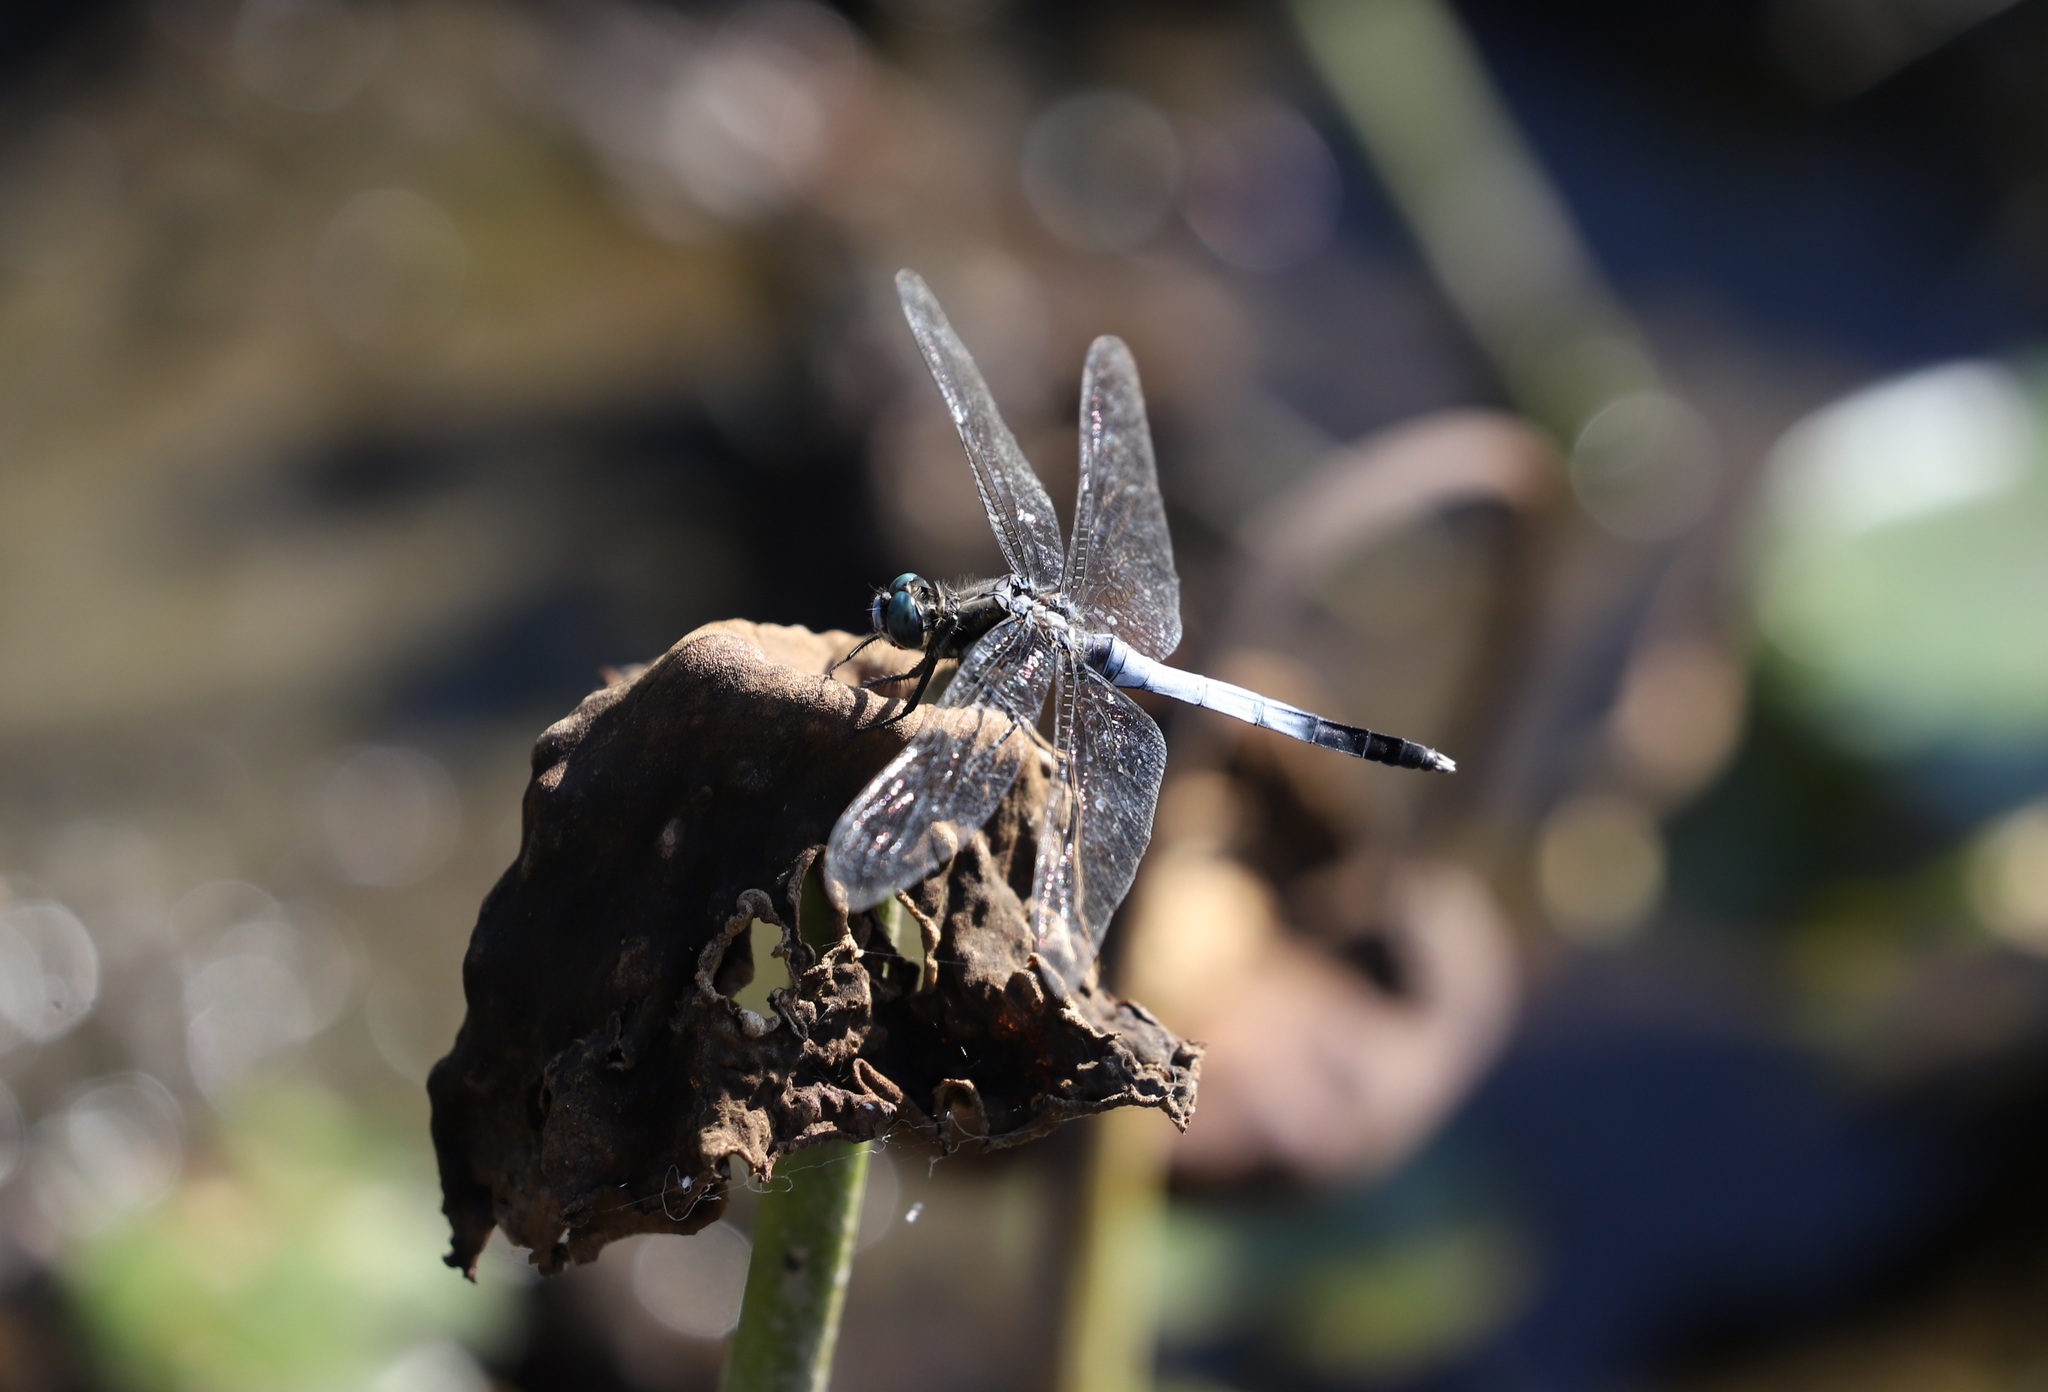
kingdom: Animalia
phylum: Arthropoda
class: Insecta
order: Odonata
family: Libellulidae
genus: Orthetrum
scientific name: Orthetrum albistylum
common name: White-tailed skimmer
